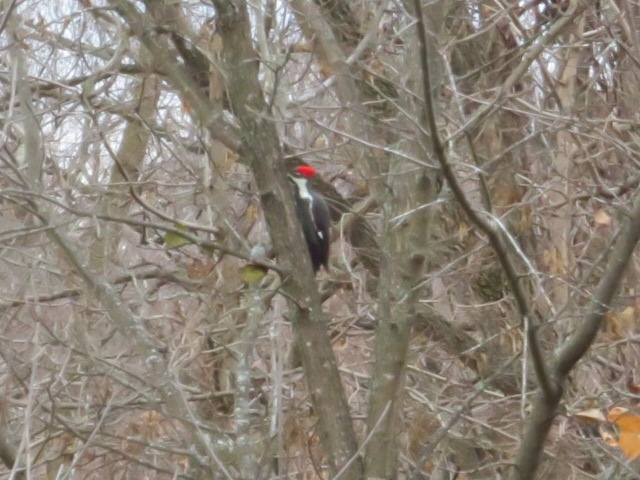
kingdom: Animalia
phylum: Chordata
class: Aves
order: Piciformes
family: Picidae
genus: Dryocopus
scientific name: Dryocopus pileatus
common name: Pileated woodpecker
